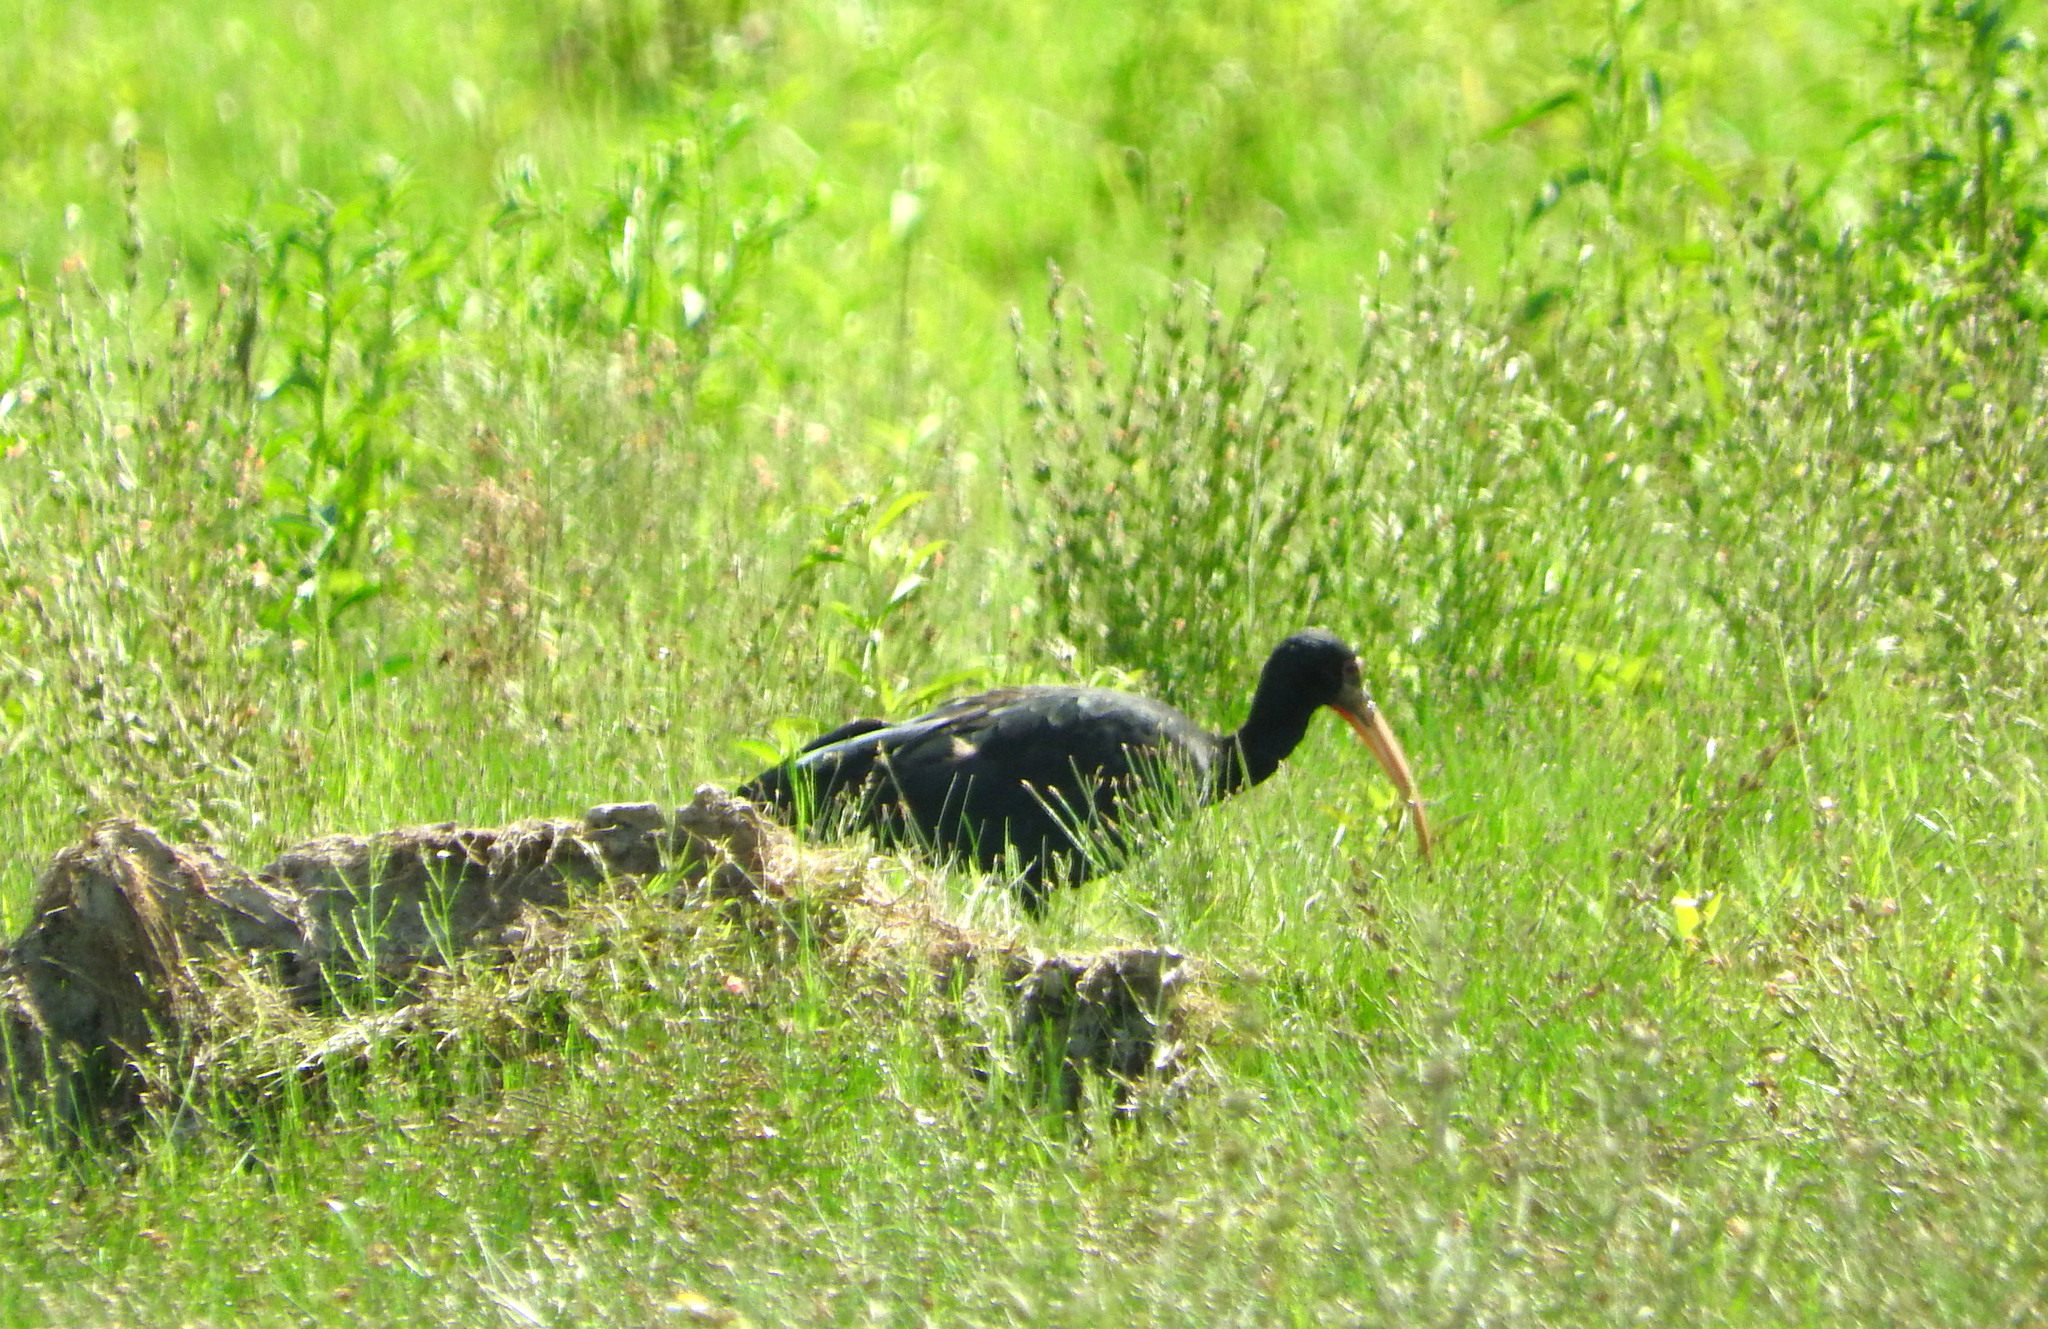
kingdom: Animalia
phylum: Chordata
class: Aves
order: Pelecaniformes
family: Threskiornithidae
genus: Phimosus
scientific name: Phimosus infuscatus
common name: Bare-faced ibis
